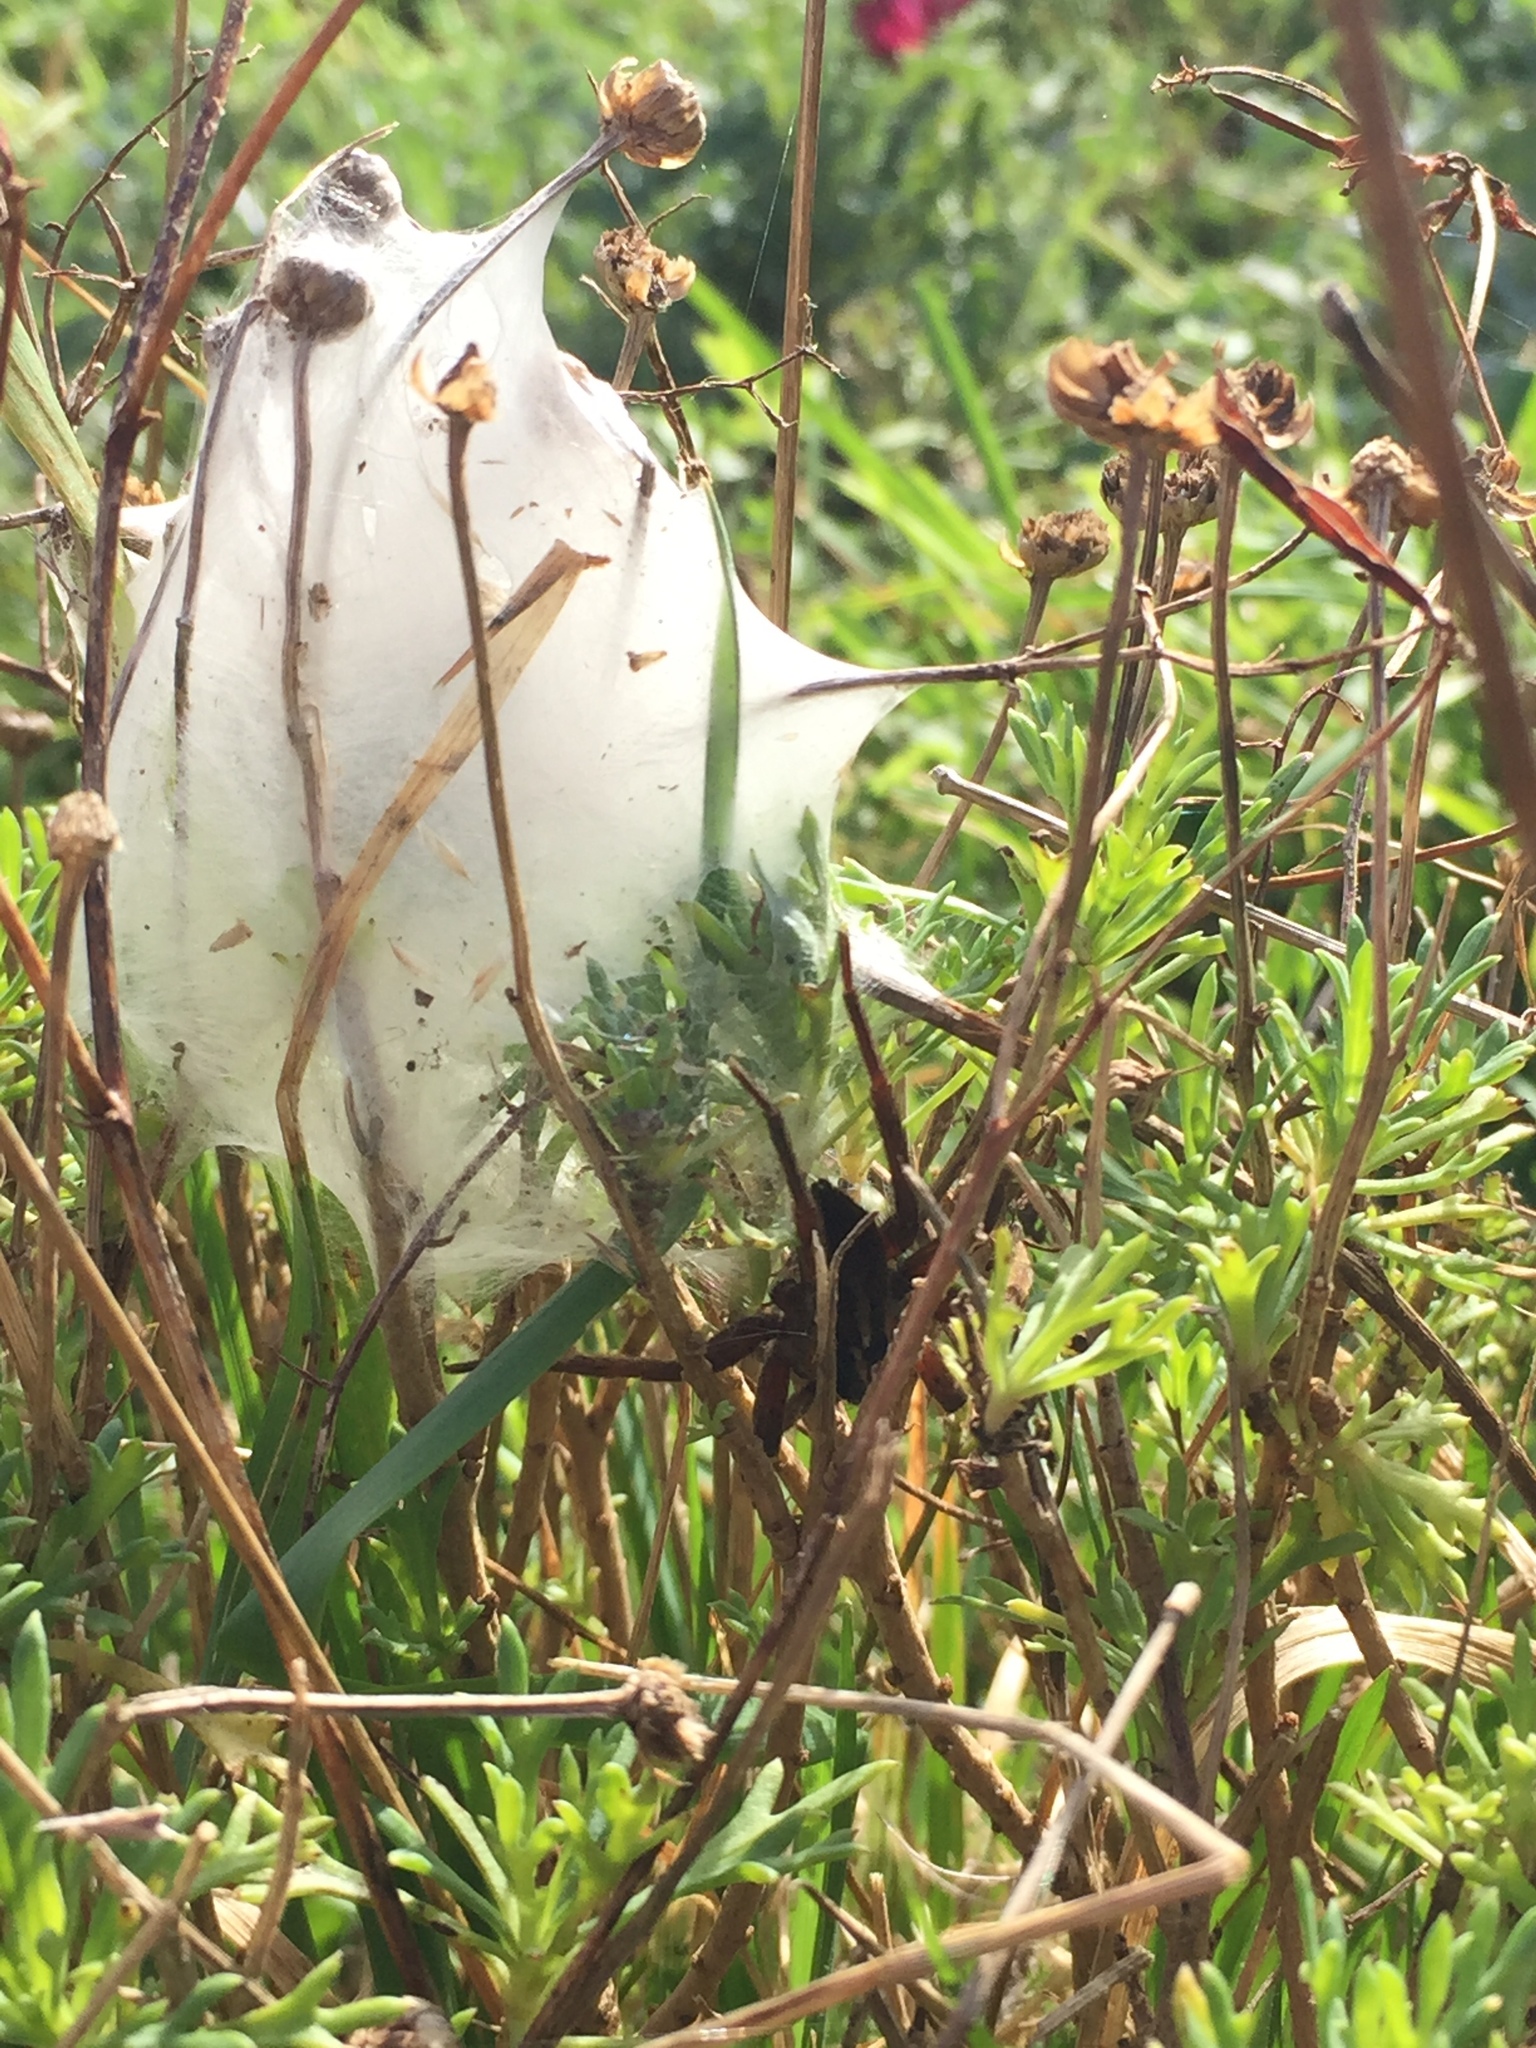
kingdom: Animalia
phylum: Arthropoda
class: Arachnida
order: Araneae
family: Pisauridae
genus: Dolomedes
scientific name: Dolomedes minor
